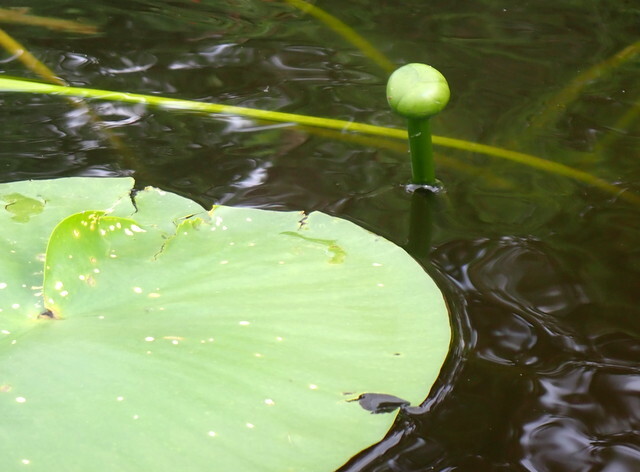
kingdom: Plantae
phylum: Tracheophyta
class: Magnoliopsida
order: Nymphaeales
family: Nymphaeaceae
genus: Nuphar
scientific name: Nuphar advena
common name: Spatter-dock
